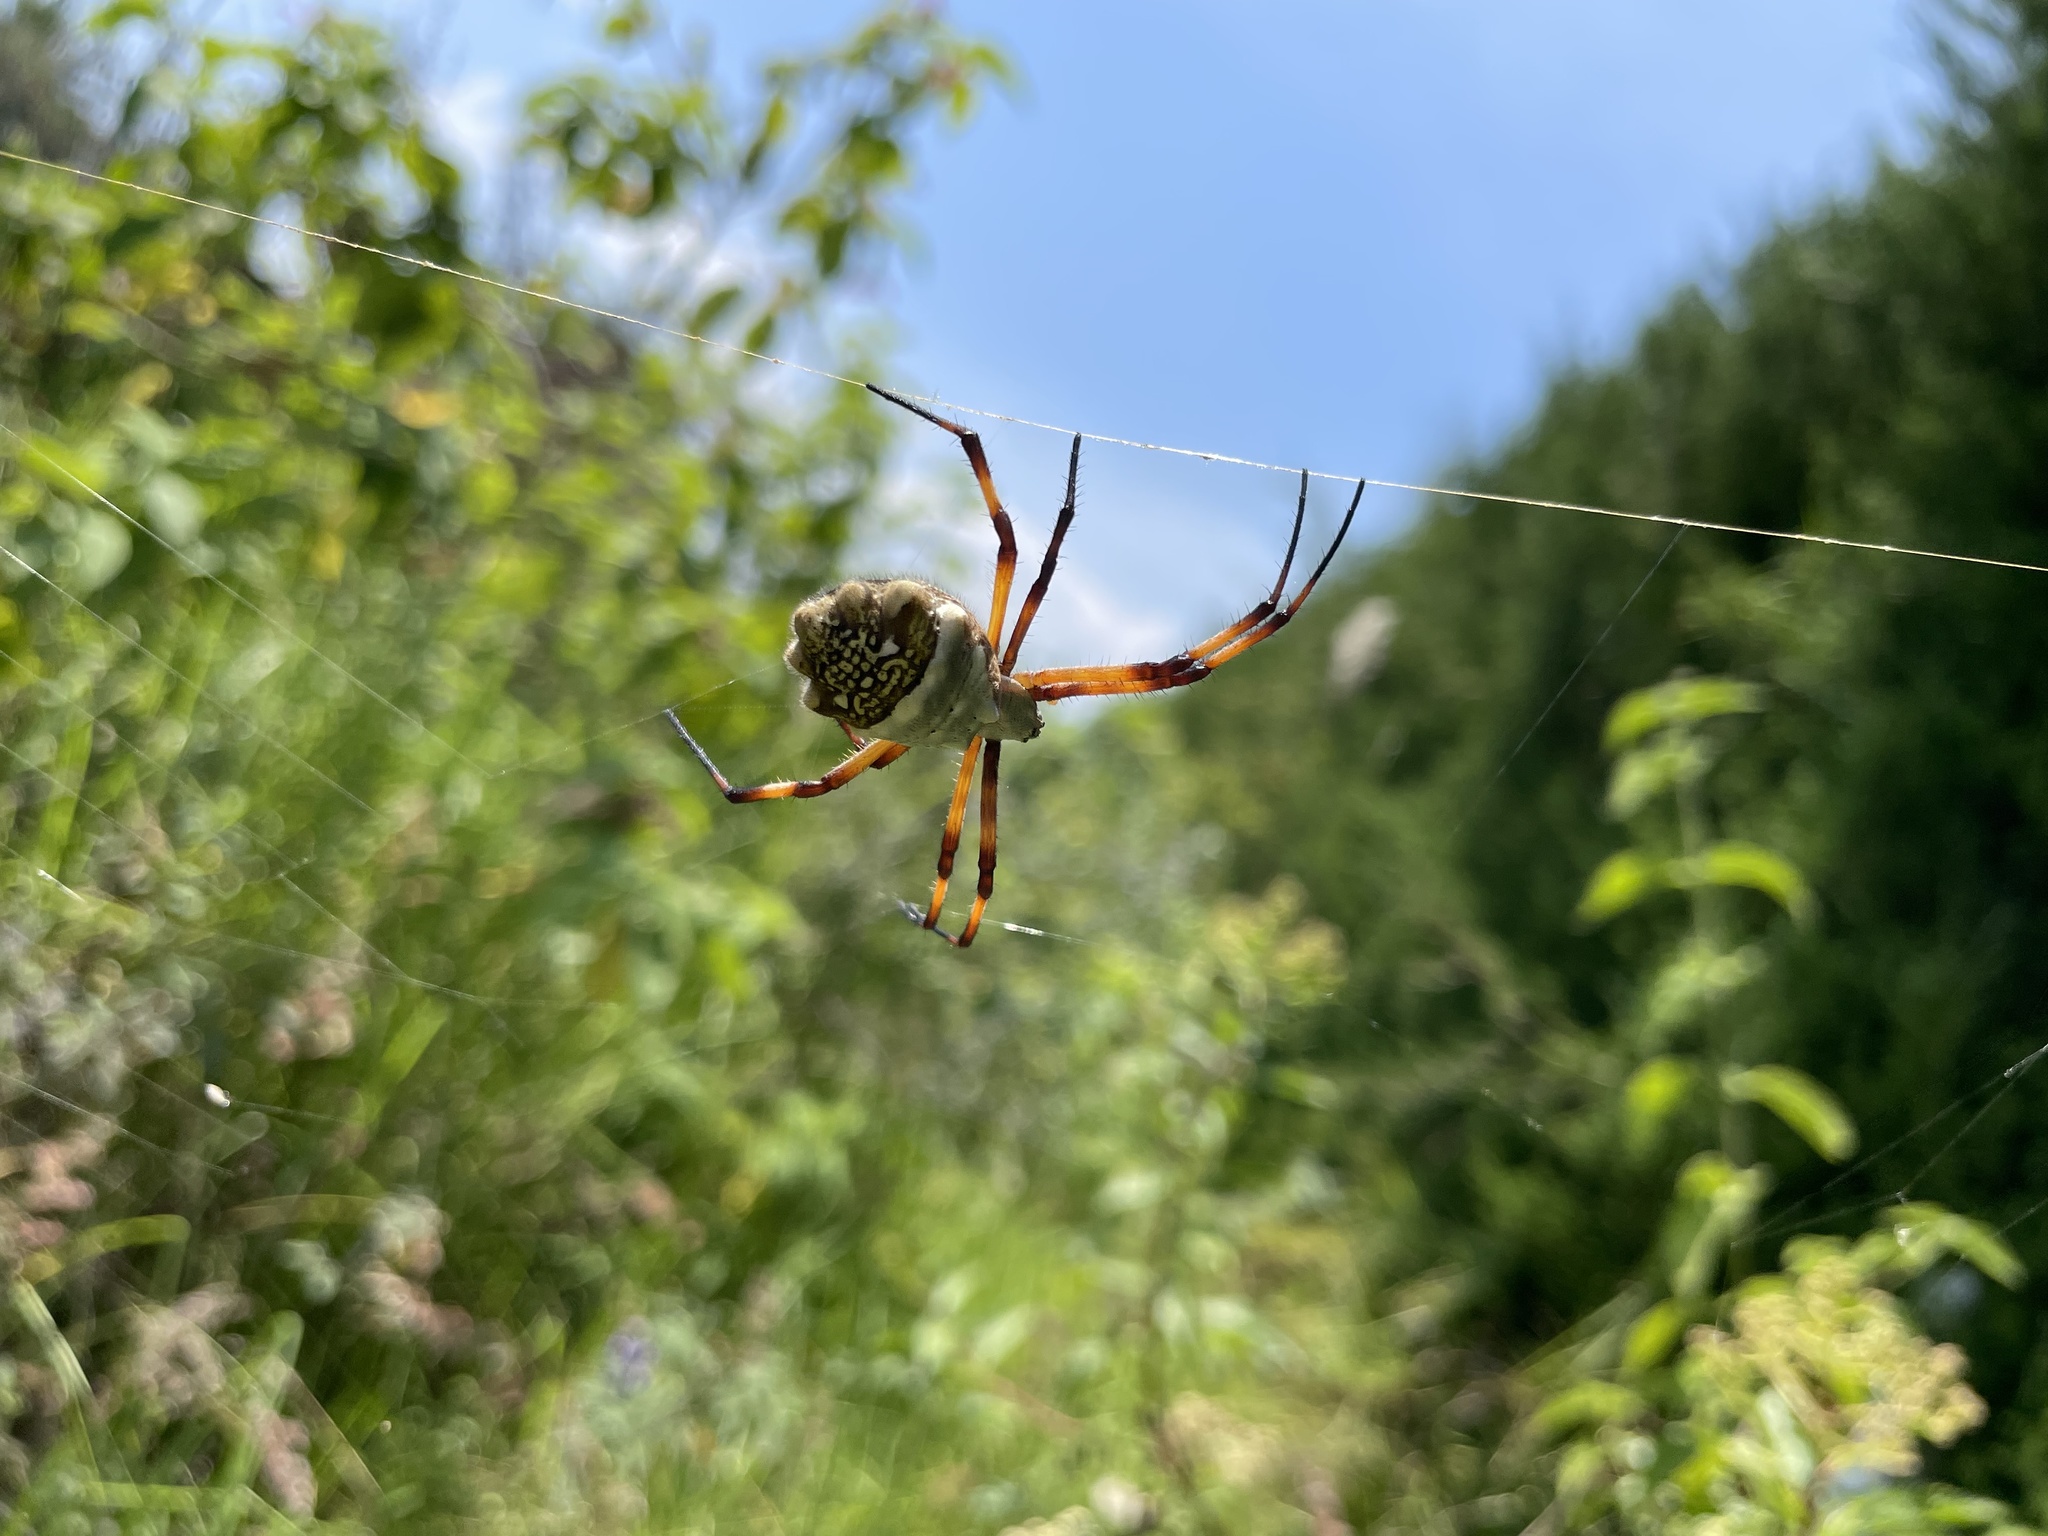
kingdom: Animalia
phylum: Arthropoda
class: Arachnida
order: Araneae
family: Araneidae
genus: Argiope
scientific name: Argiope argentata
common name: Orb weavers
